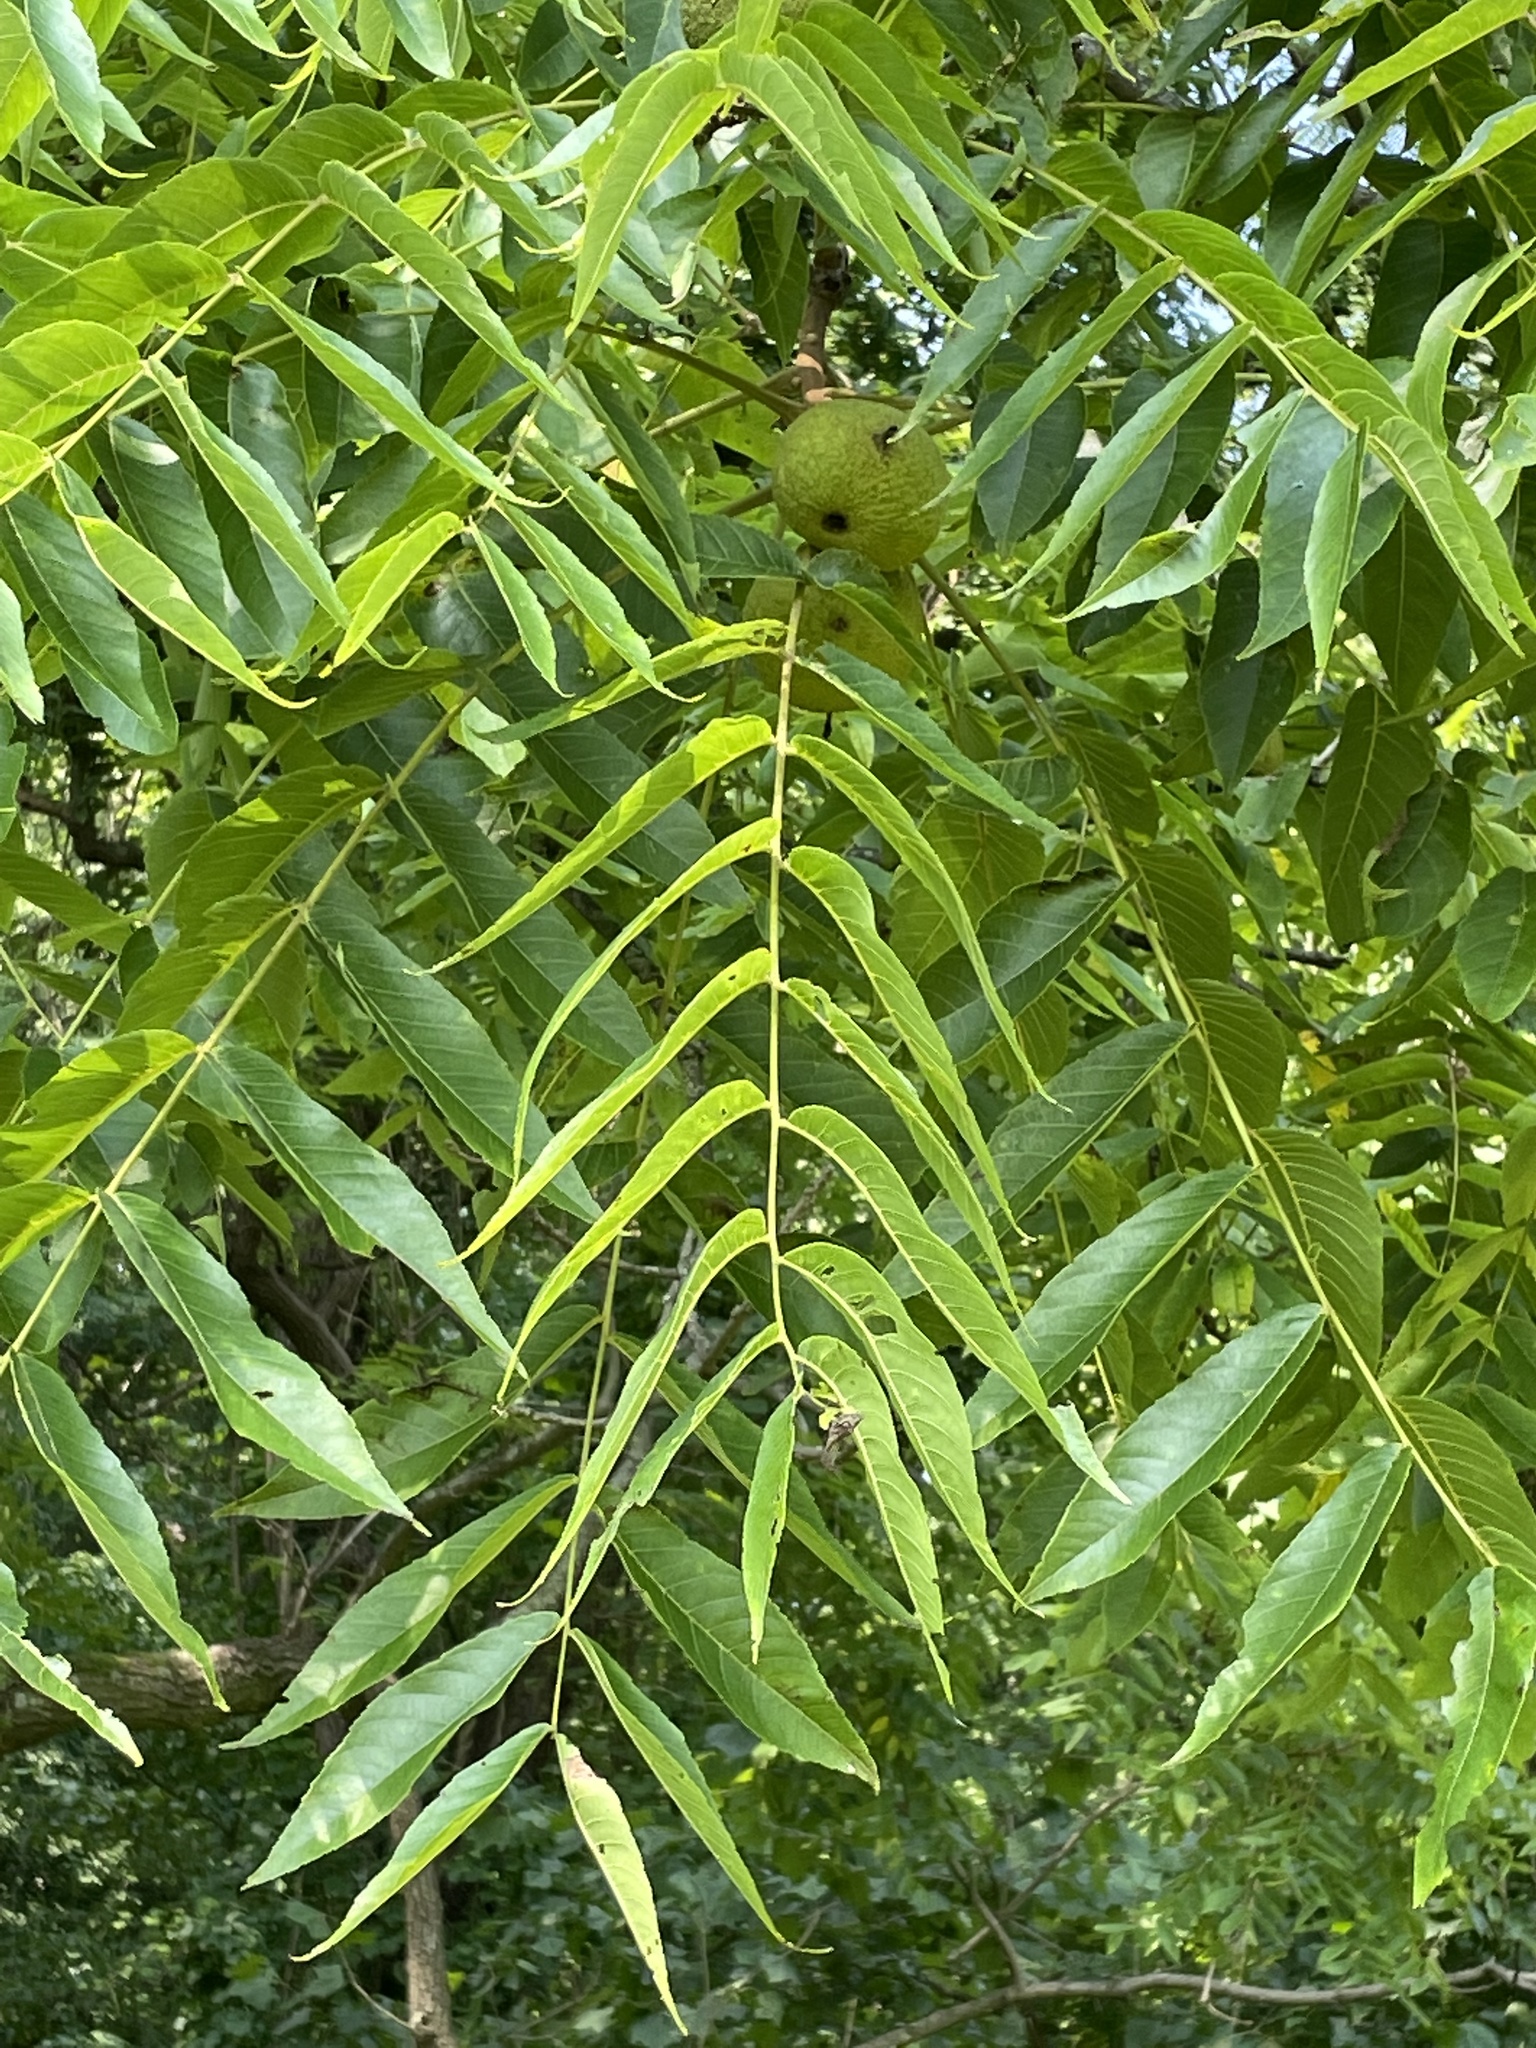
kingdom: Plantae
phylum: Tracheophyta
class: Magnoliopsida
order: Fagales
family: Juglandaceae
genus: Juglans
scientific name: Juglans nigra
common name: Black walnut
